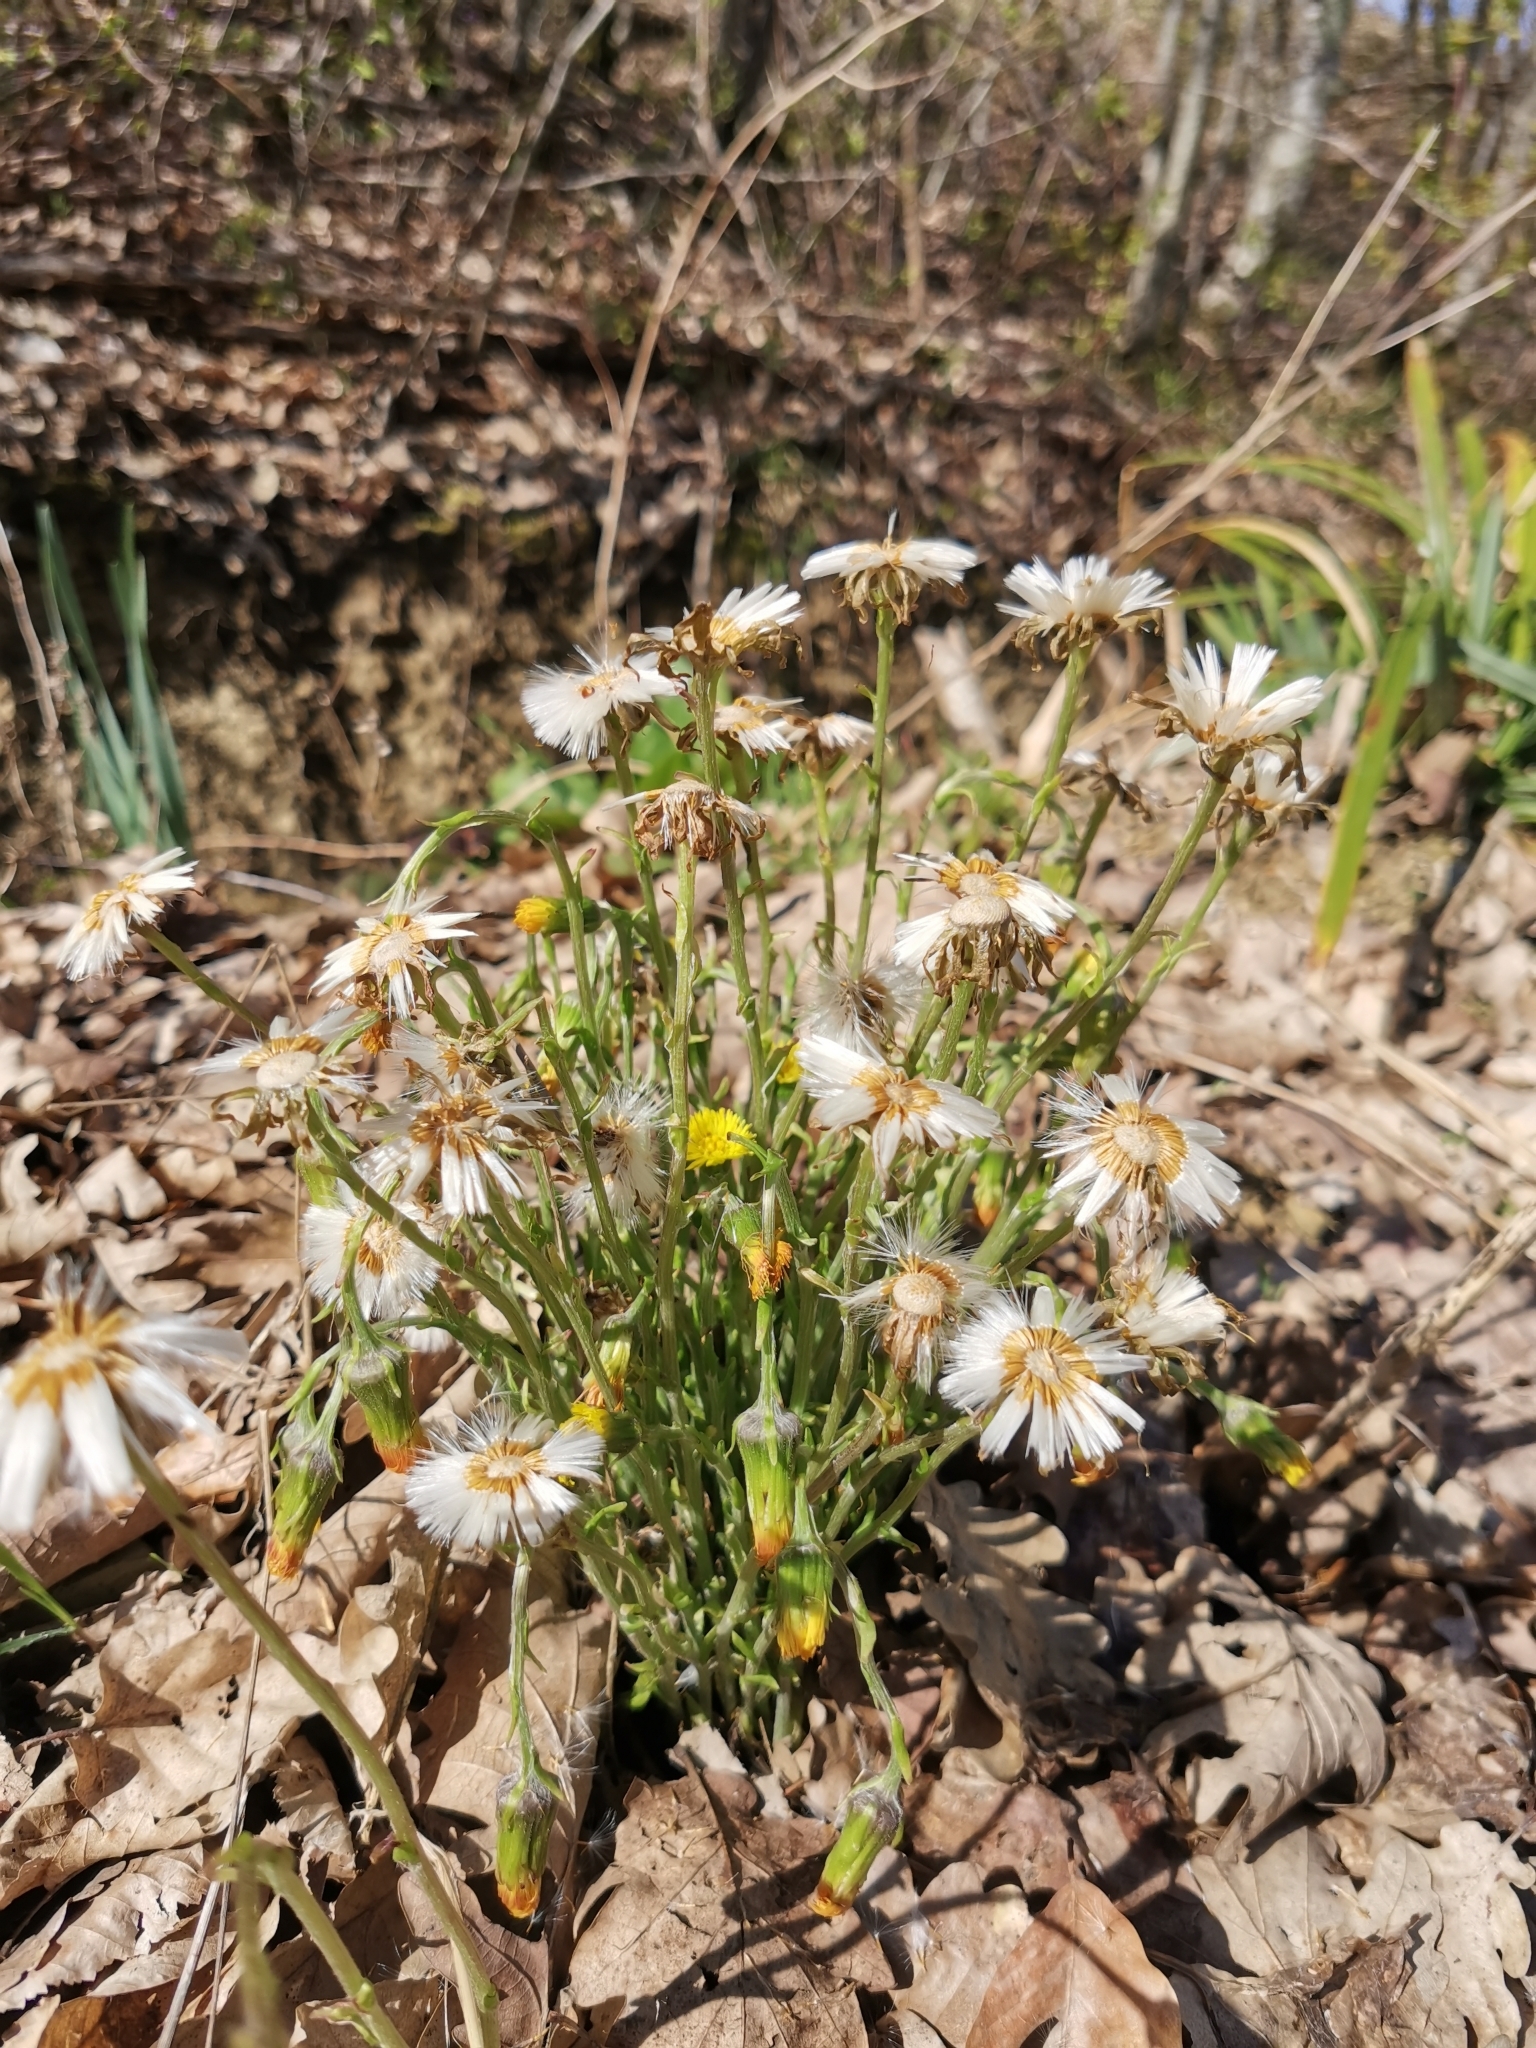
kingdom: Plantae
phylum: Tracheophyta
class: Magnoliopsida
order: Asterales
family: Asteraceae
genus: Tussilago
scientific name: Tussilago farfara
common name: Coltsfoot
